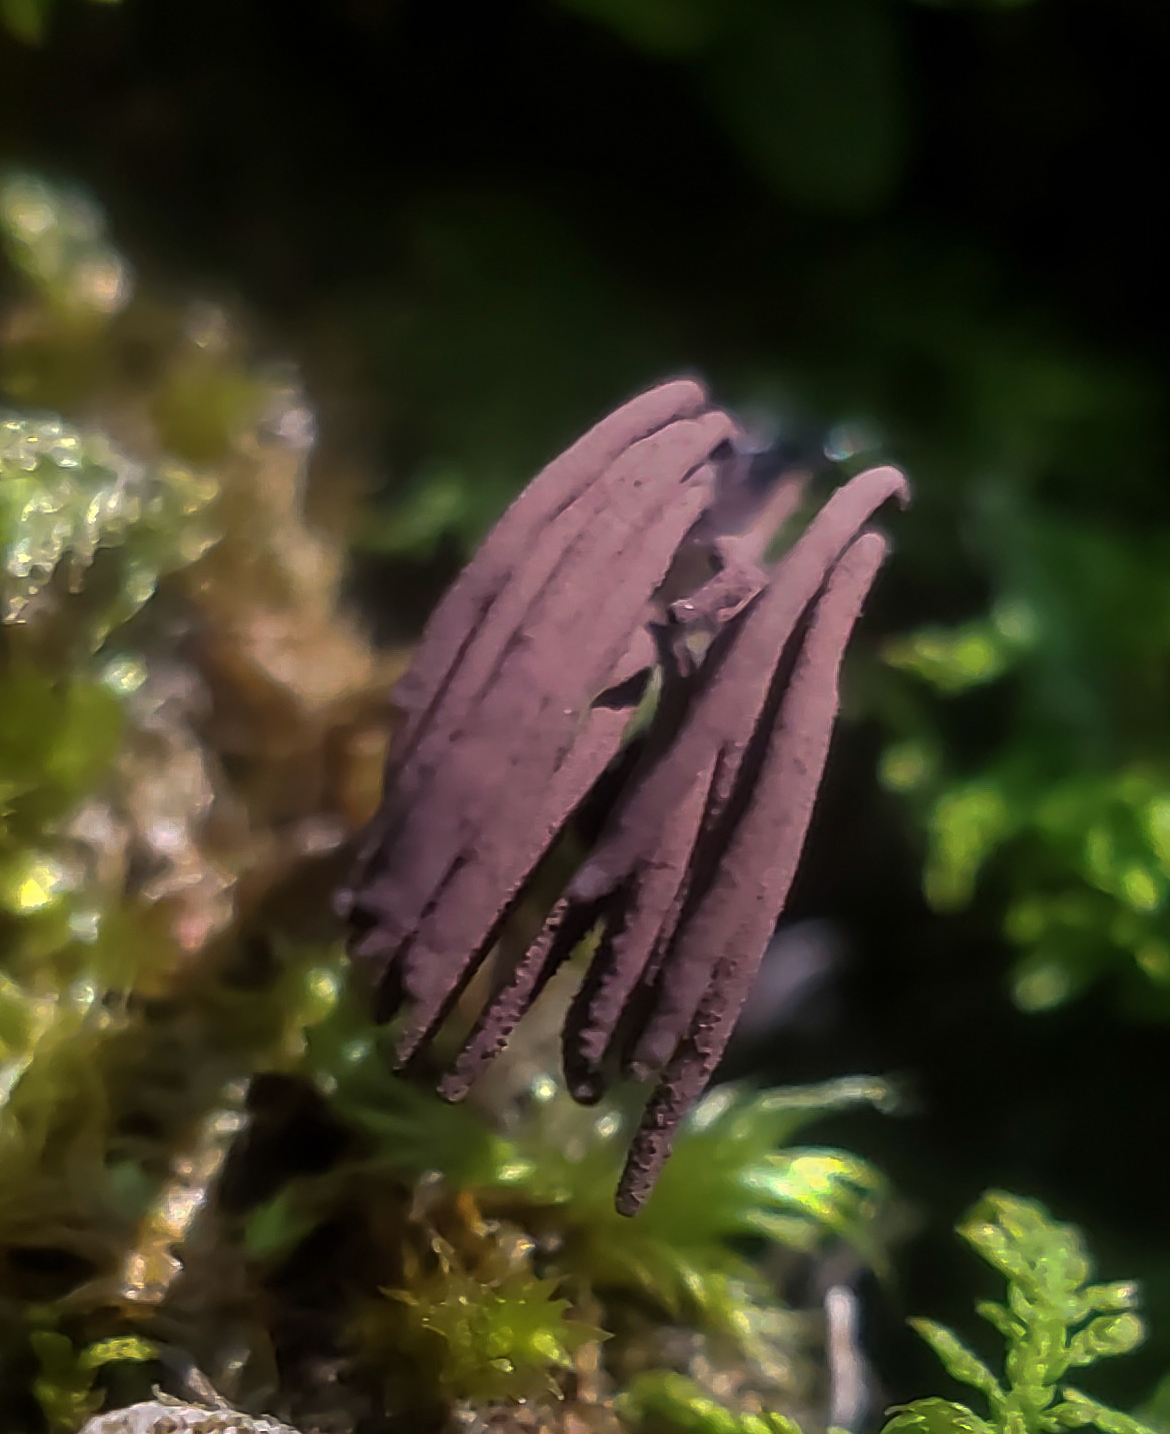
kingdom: Protozoa
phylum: Mycetozoa
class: Myxomycetes
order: Stemonitidales
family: Stemonitidaceae
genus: Stemonitis
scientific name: Stemonitis splendens
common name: Chocolate tube slime
